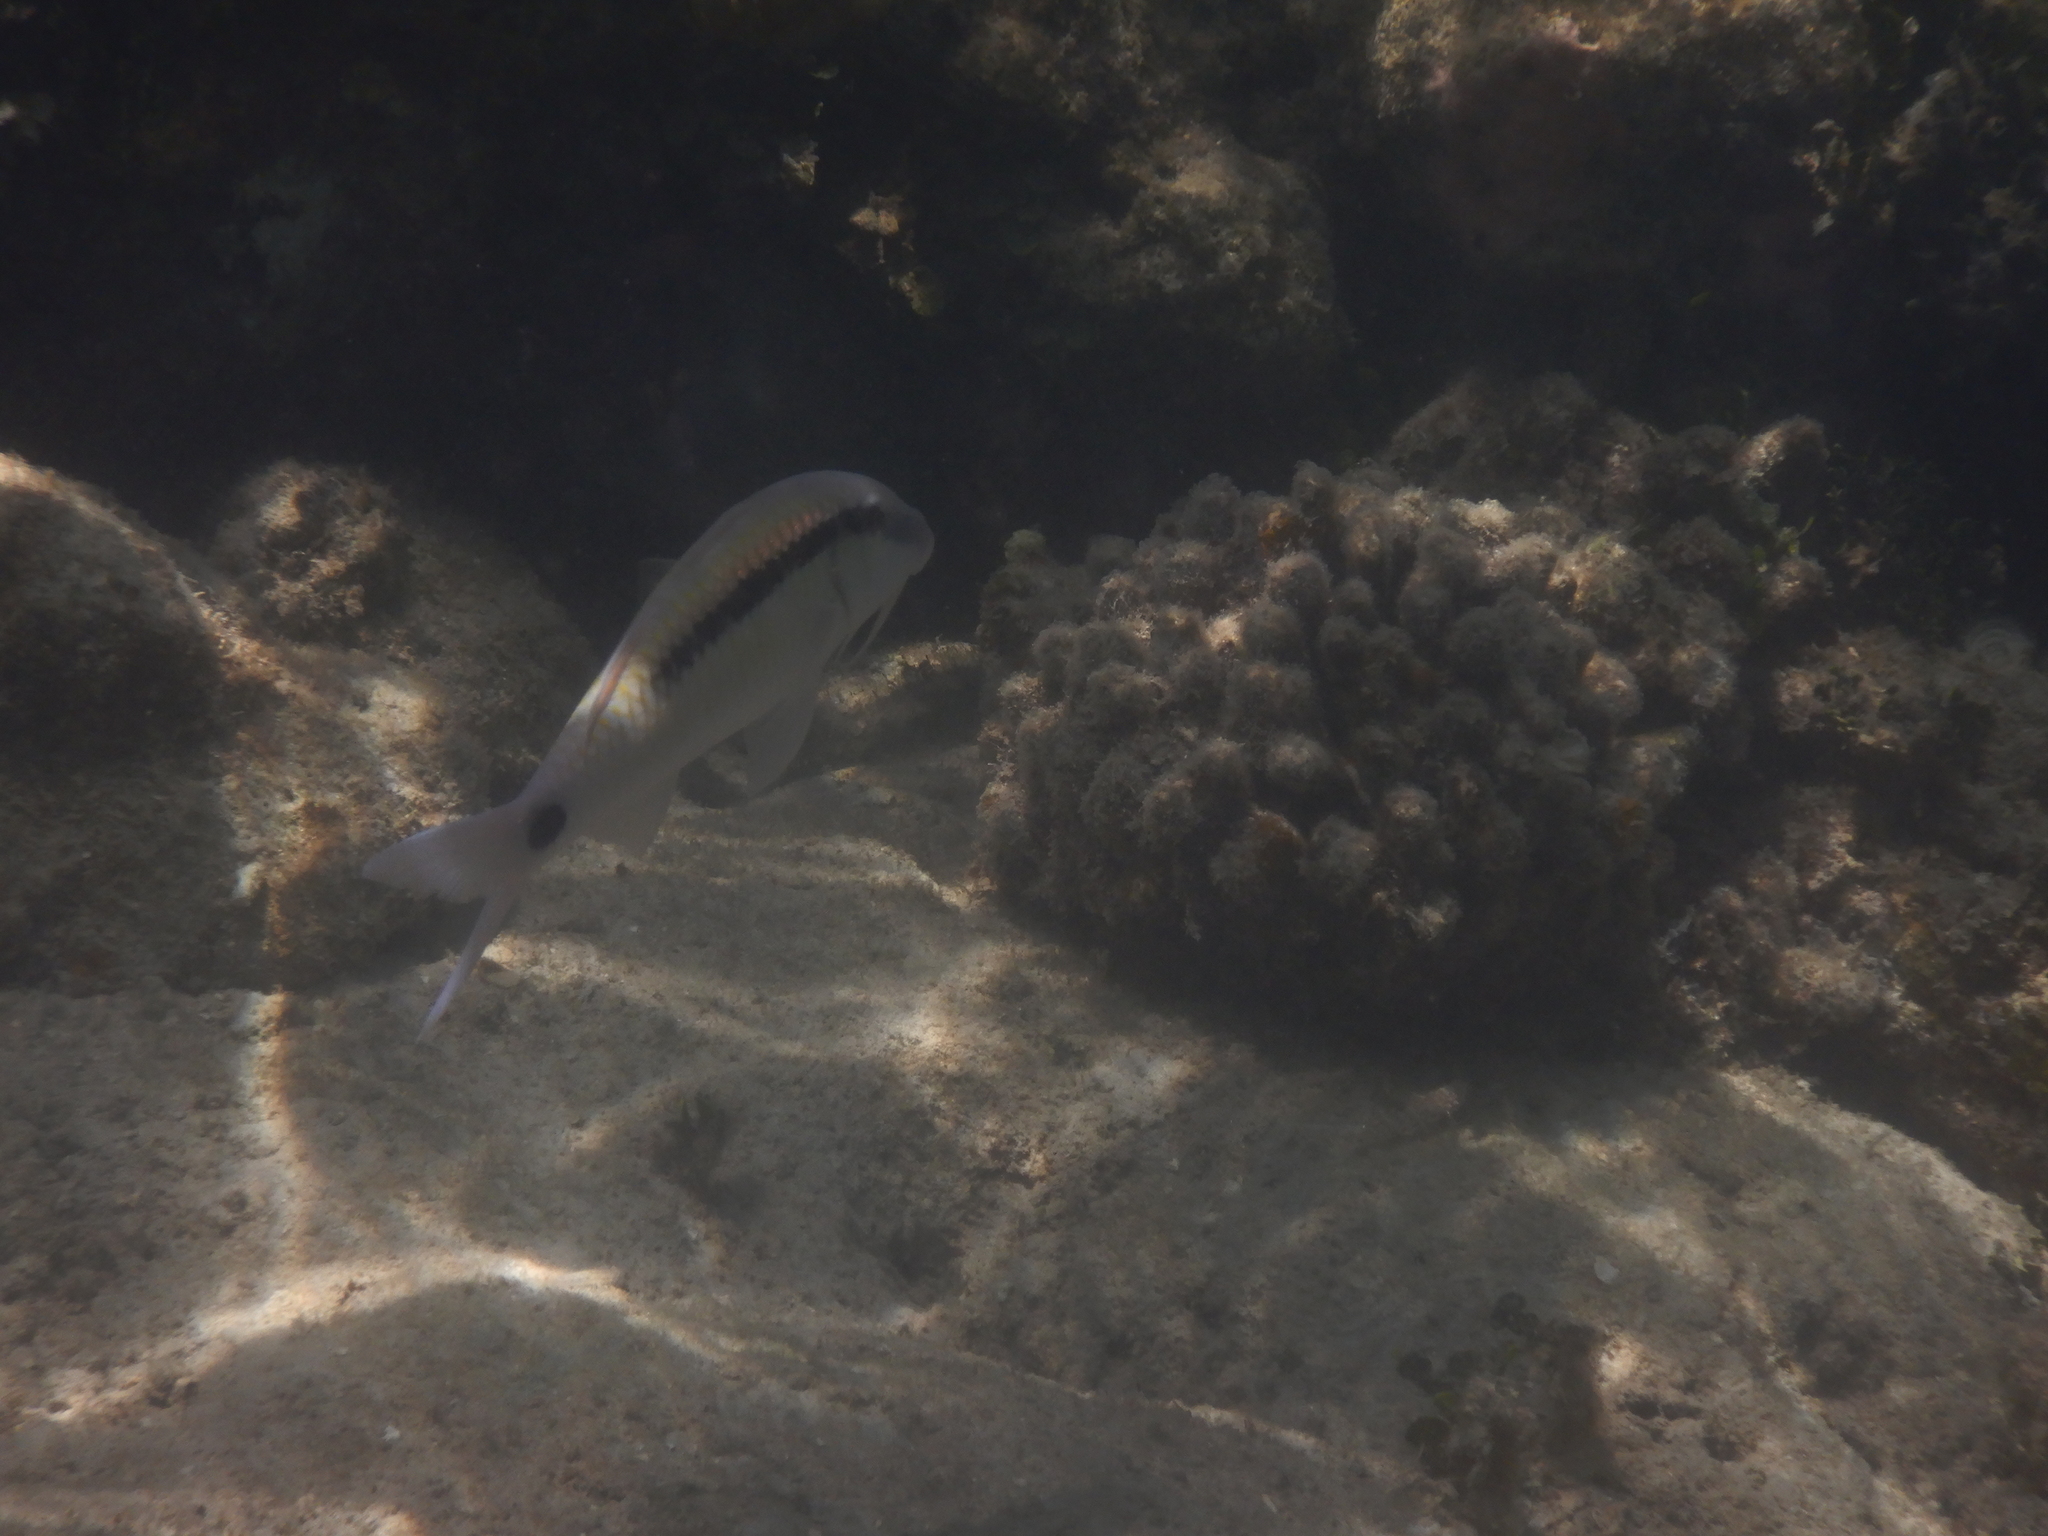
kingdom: Animalia
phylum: Chordata
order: Perciformes
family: Mullidae
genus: Parupeneus
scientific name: Parupeneus barberinus
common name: Dash-and-dot goatfish
